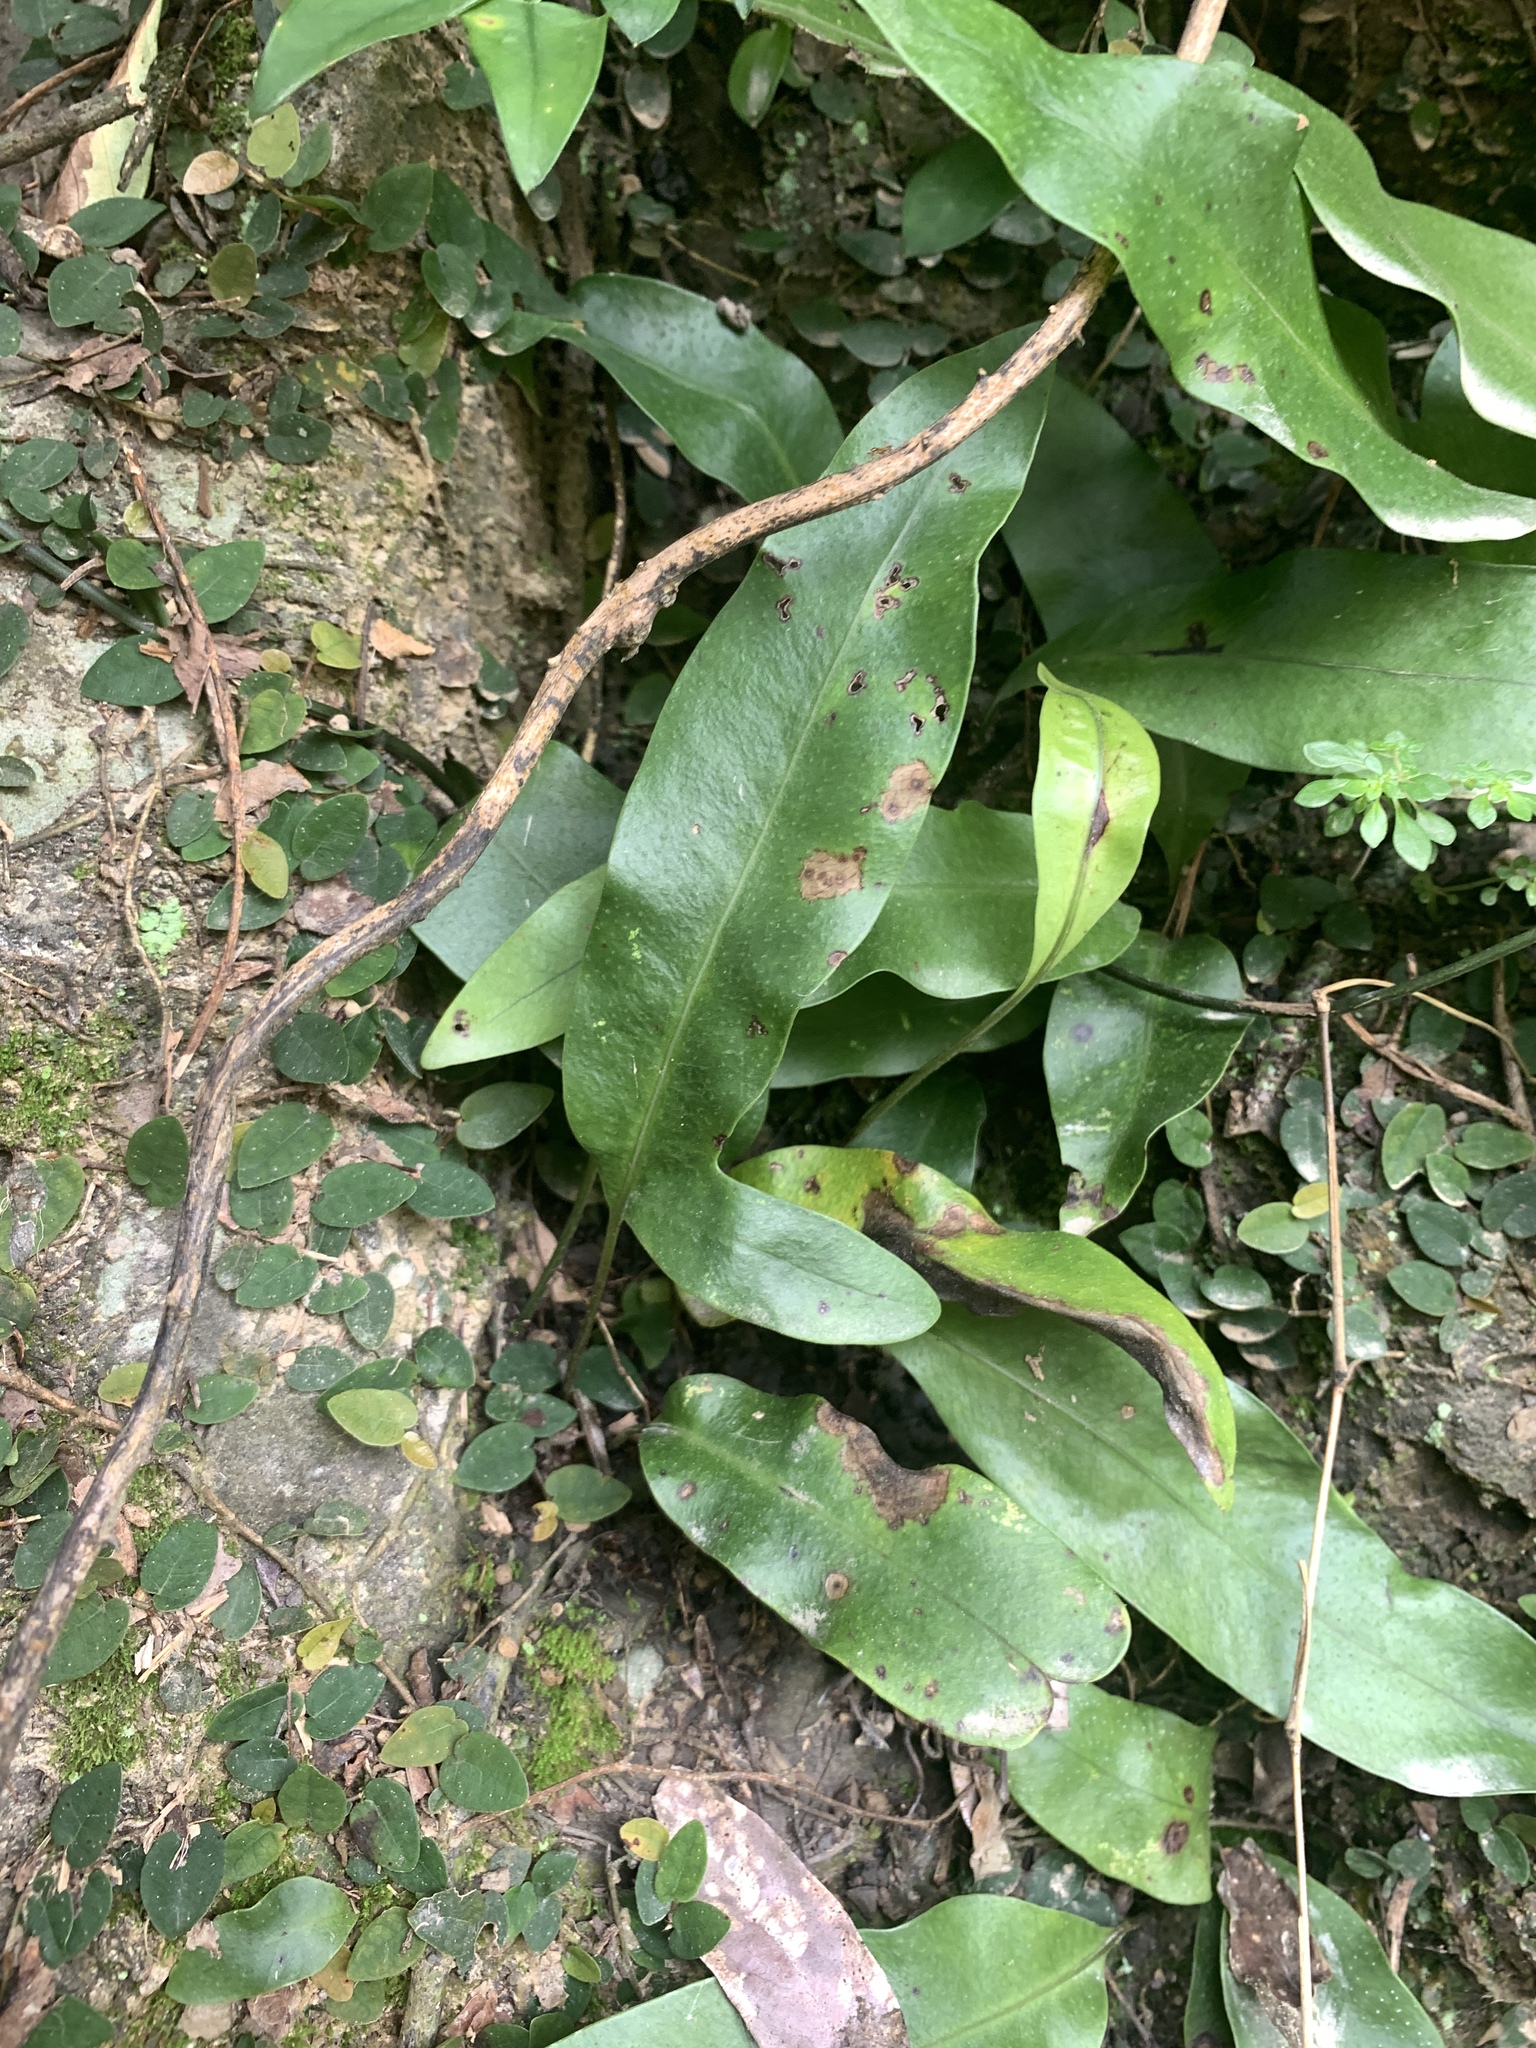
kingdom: Plantae
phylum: Tracheophyta
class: Polypodiopsida
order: Polypodiales
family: Polypodiaceae
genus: Microsorum
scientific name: Microsorum scolopendria
